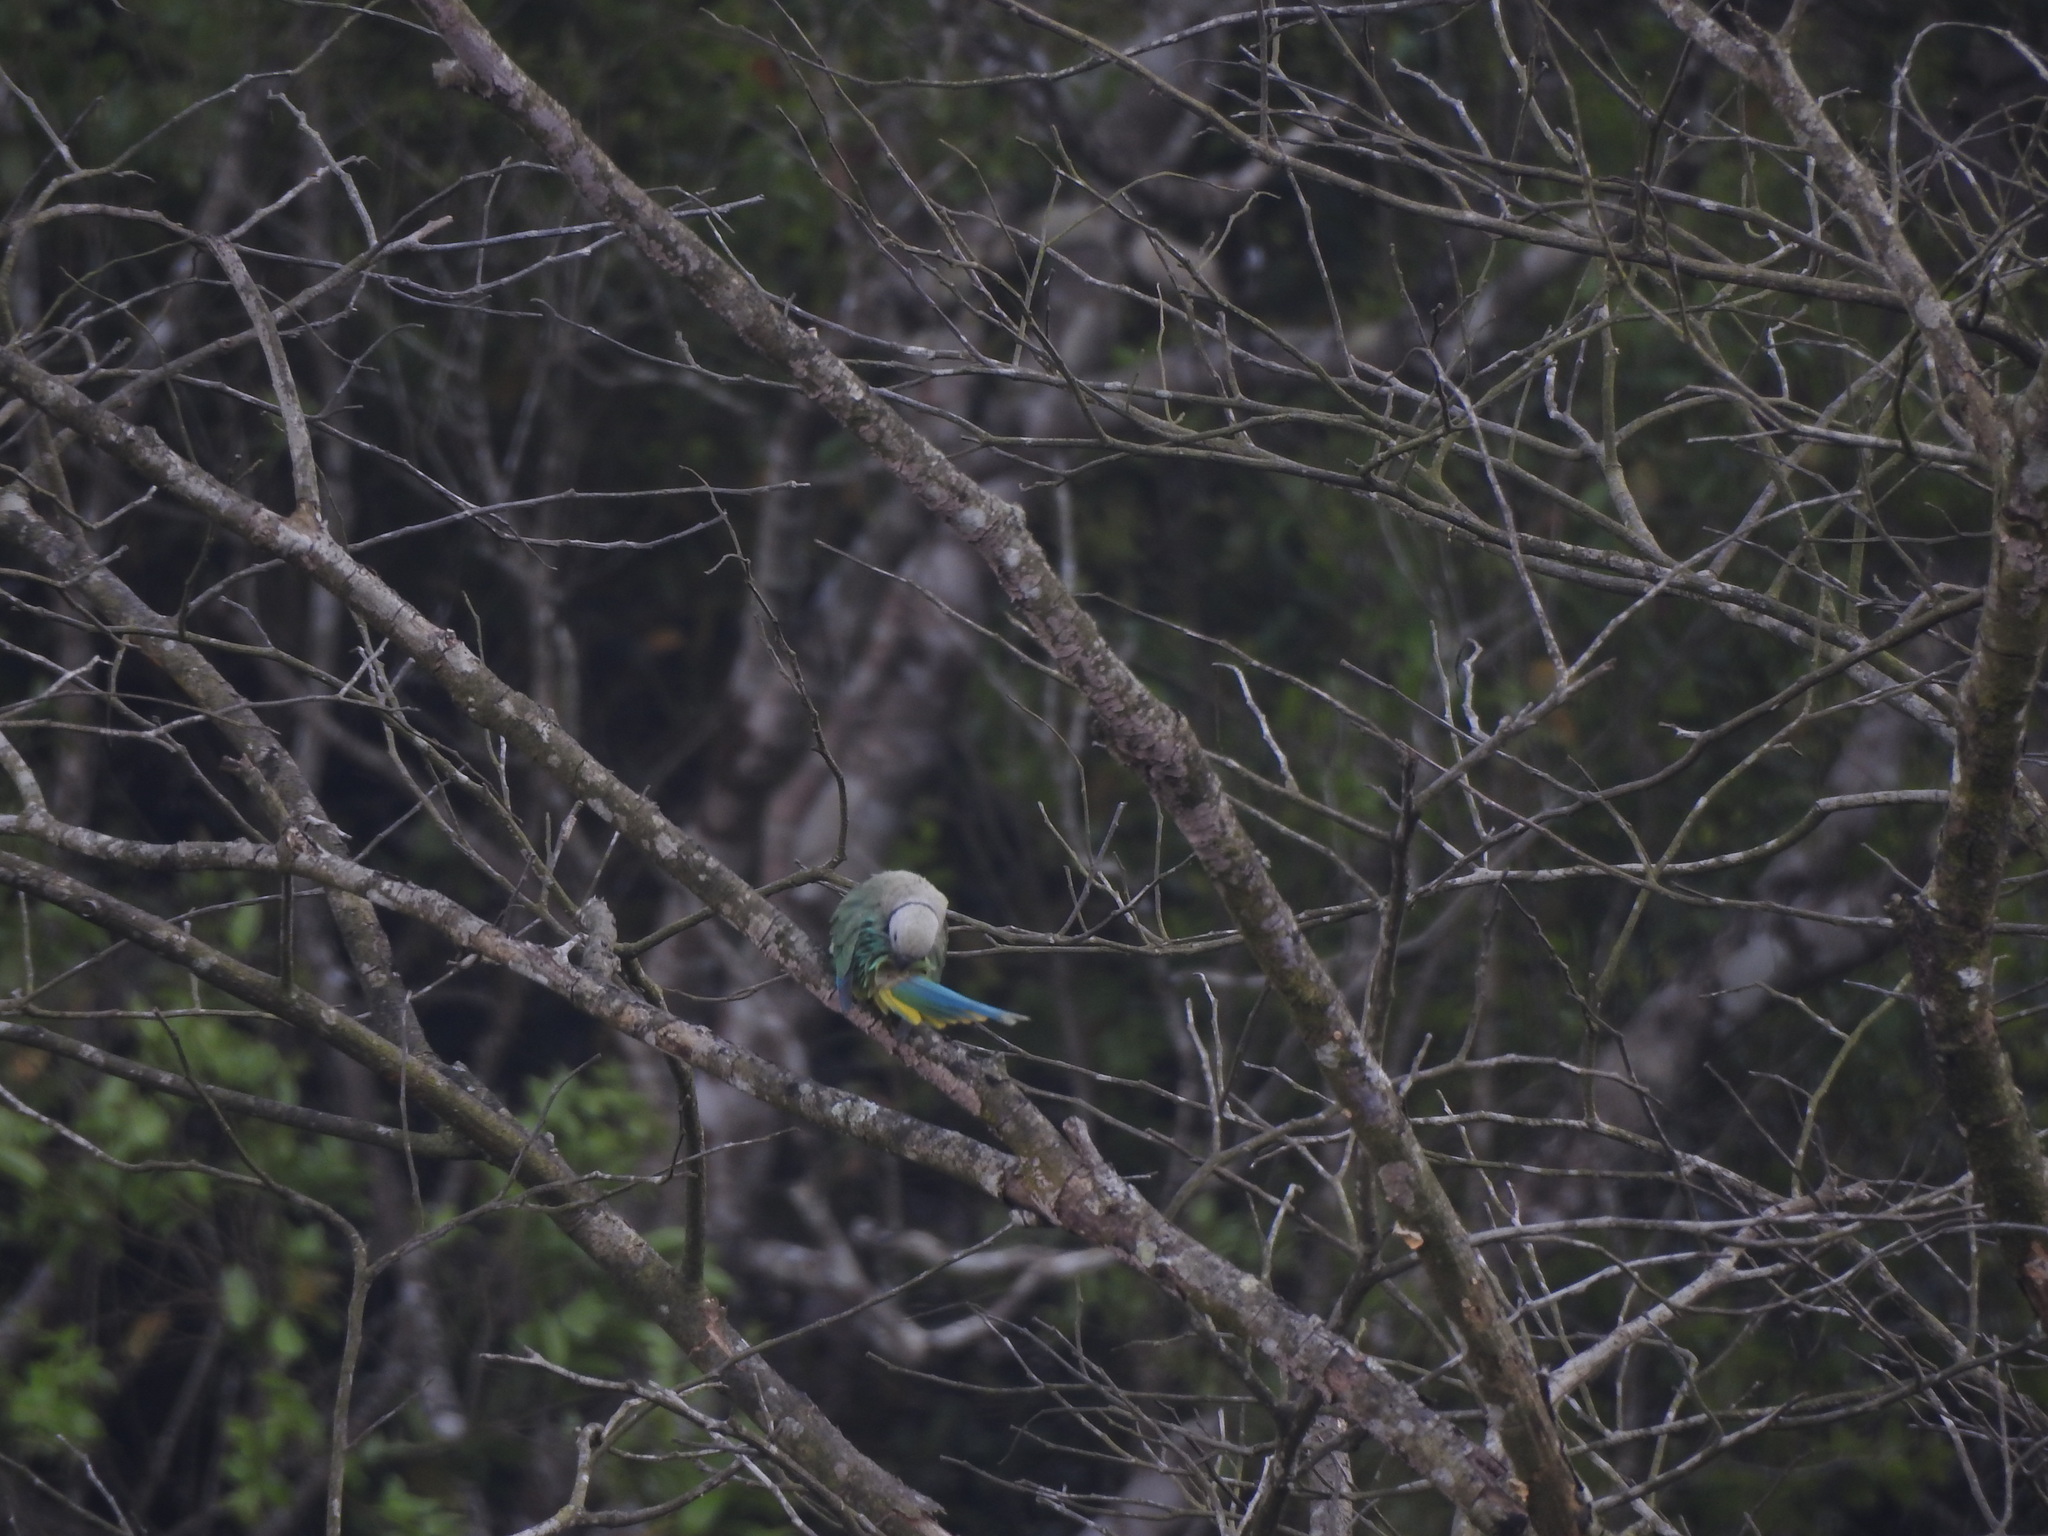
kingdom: Animalia
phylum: Chordata
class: Aves
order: Psittaciformes
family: Psittacidae
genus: Psittacula
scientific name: Psittacula columboides
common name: Blue-winged parakeet
